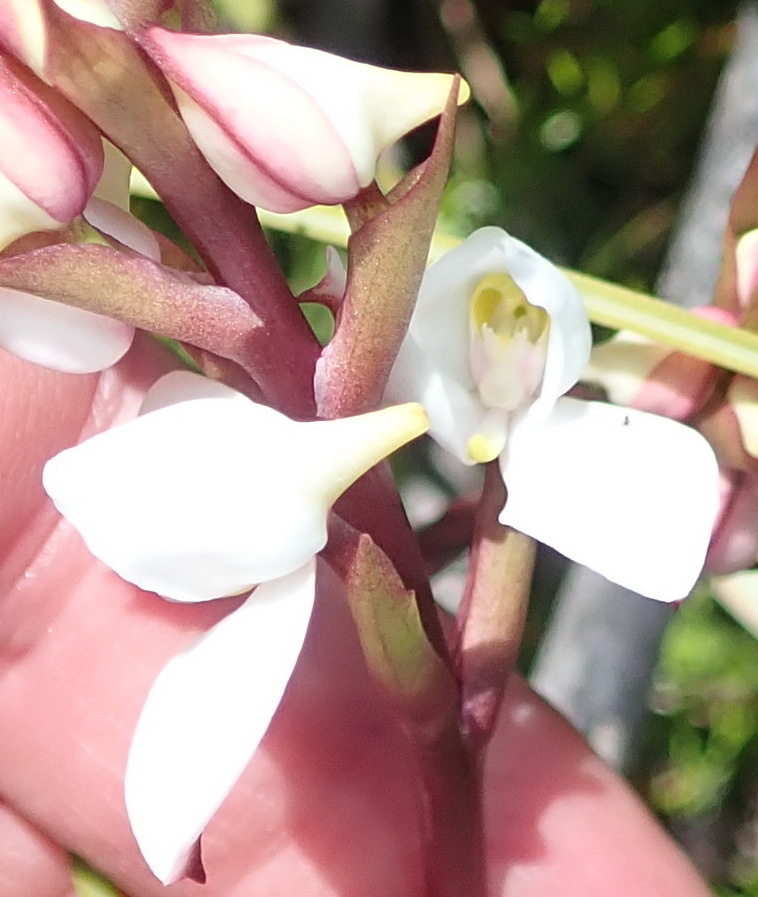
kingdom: Plantae
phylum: Tracheophyta
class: Liliopsida
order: Asparagales
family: Orchidaceae
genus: Disa
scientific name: Disa tripetaloides
